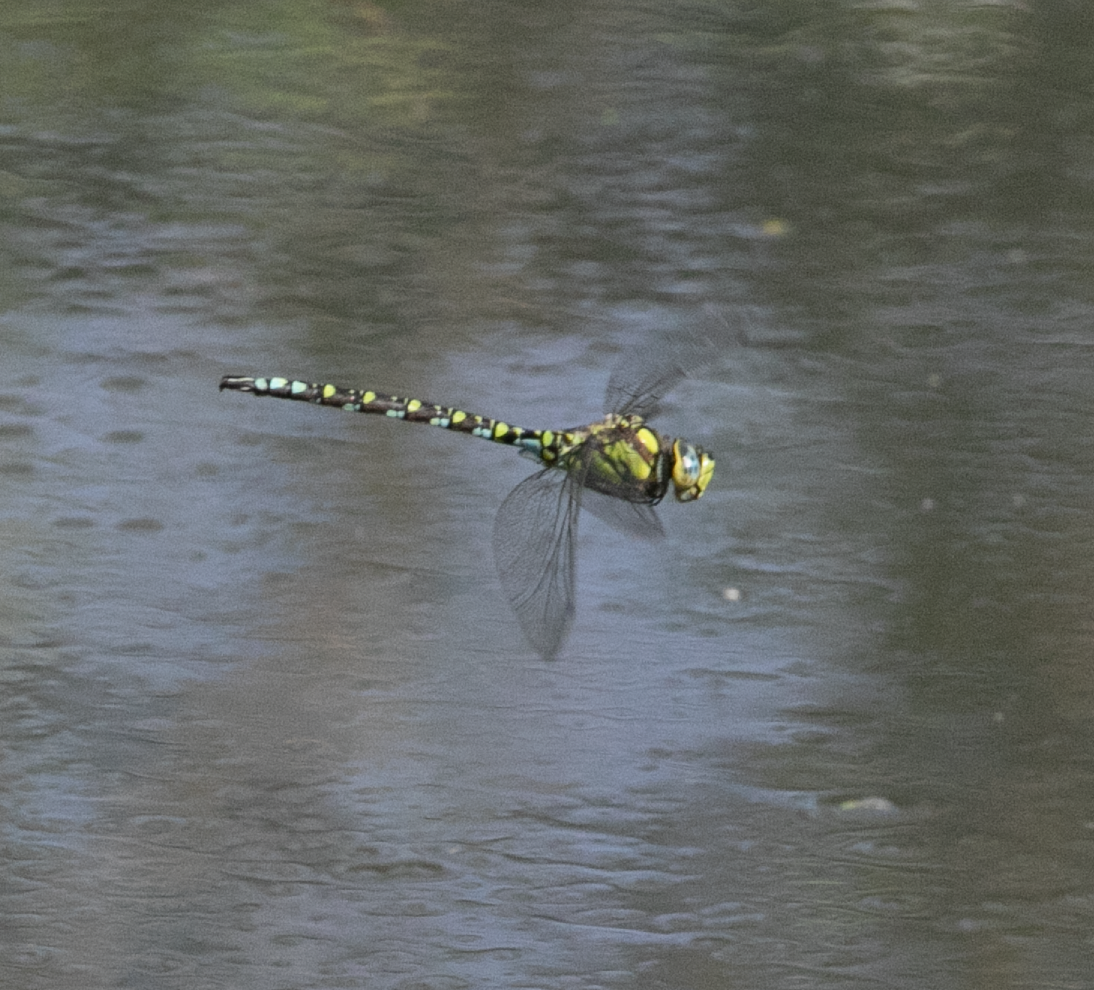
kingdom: Animalia
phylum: Arthropoda
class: Insecta
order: Odonata
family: Aeshnidae
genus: Aeshna
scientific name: Aeshna cyanea
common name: Southern hawker
